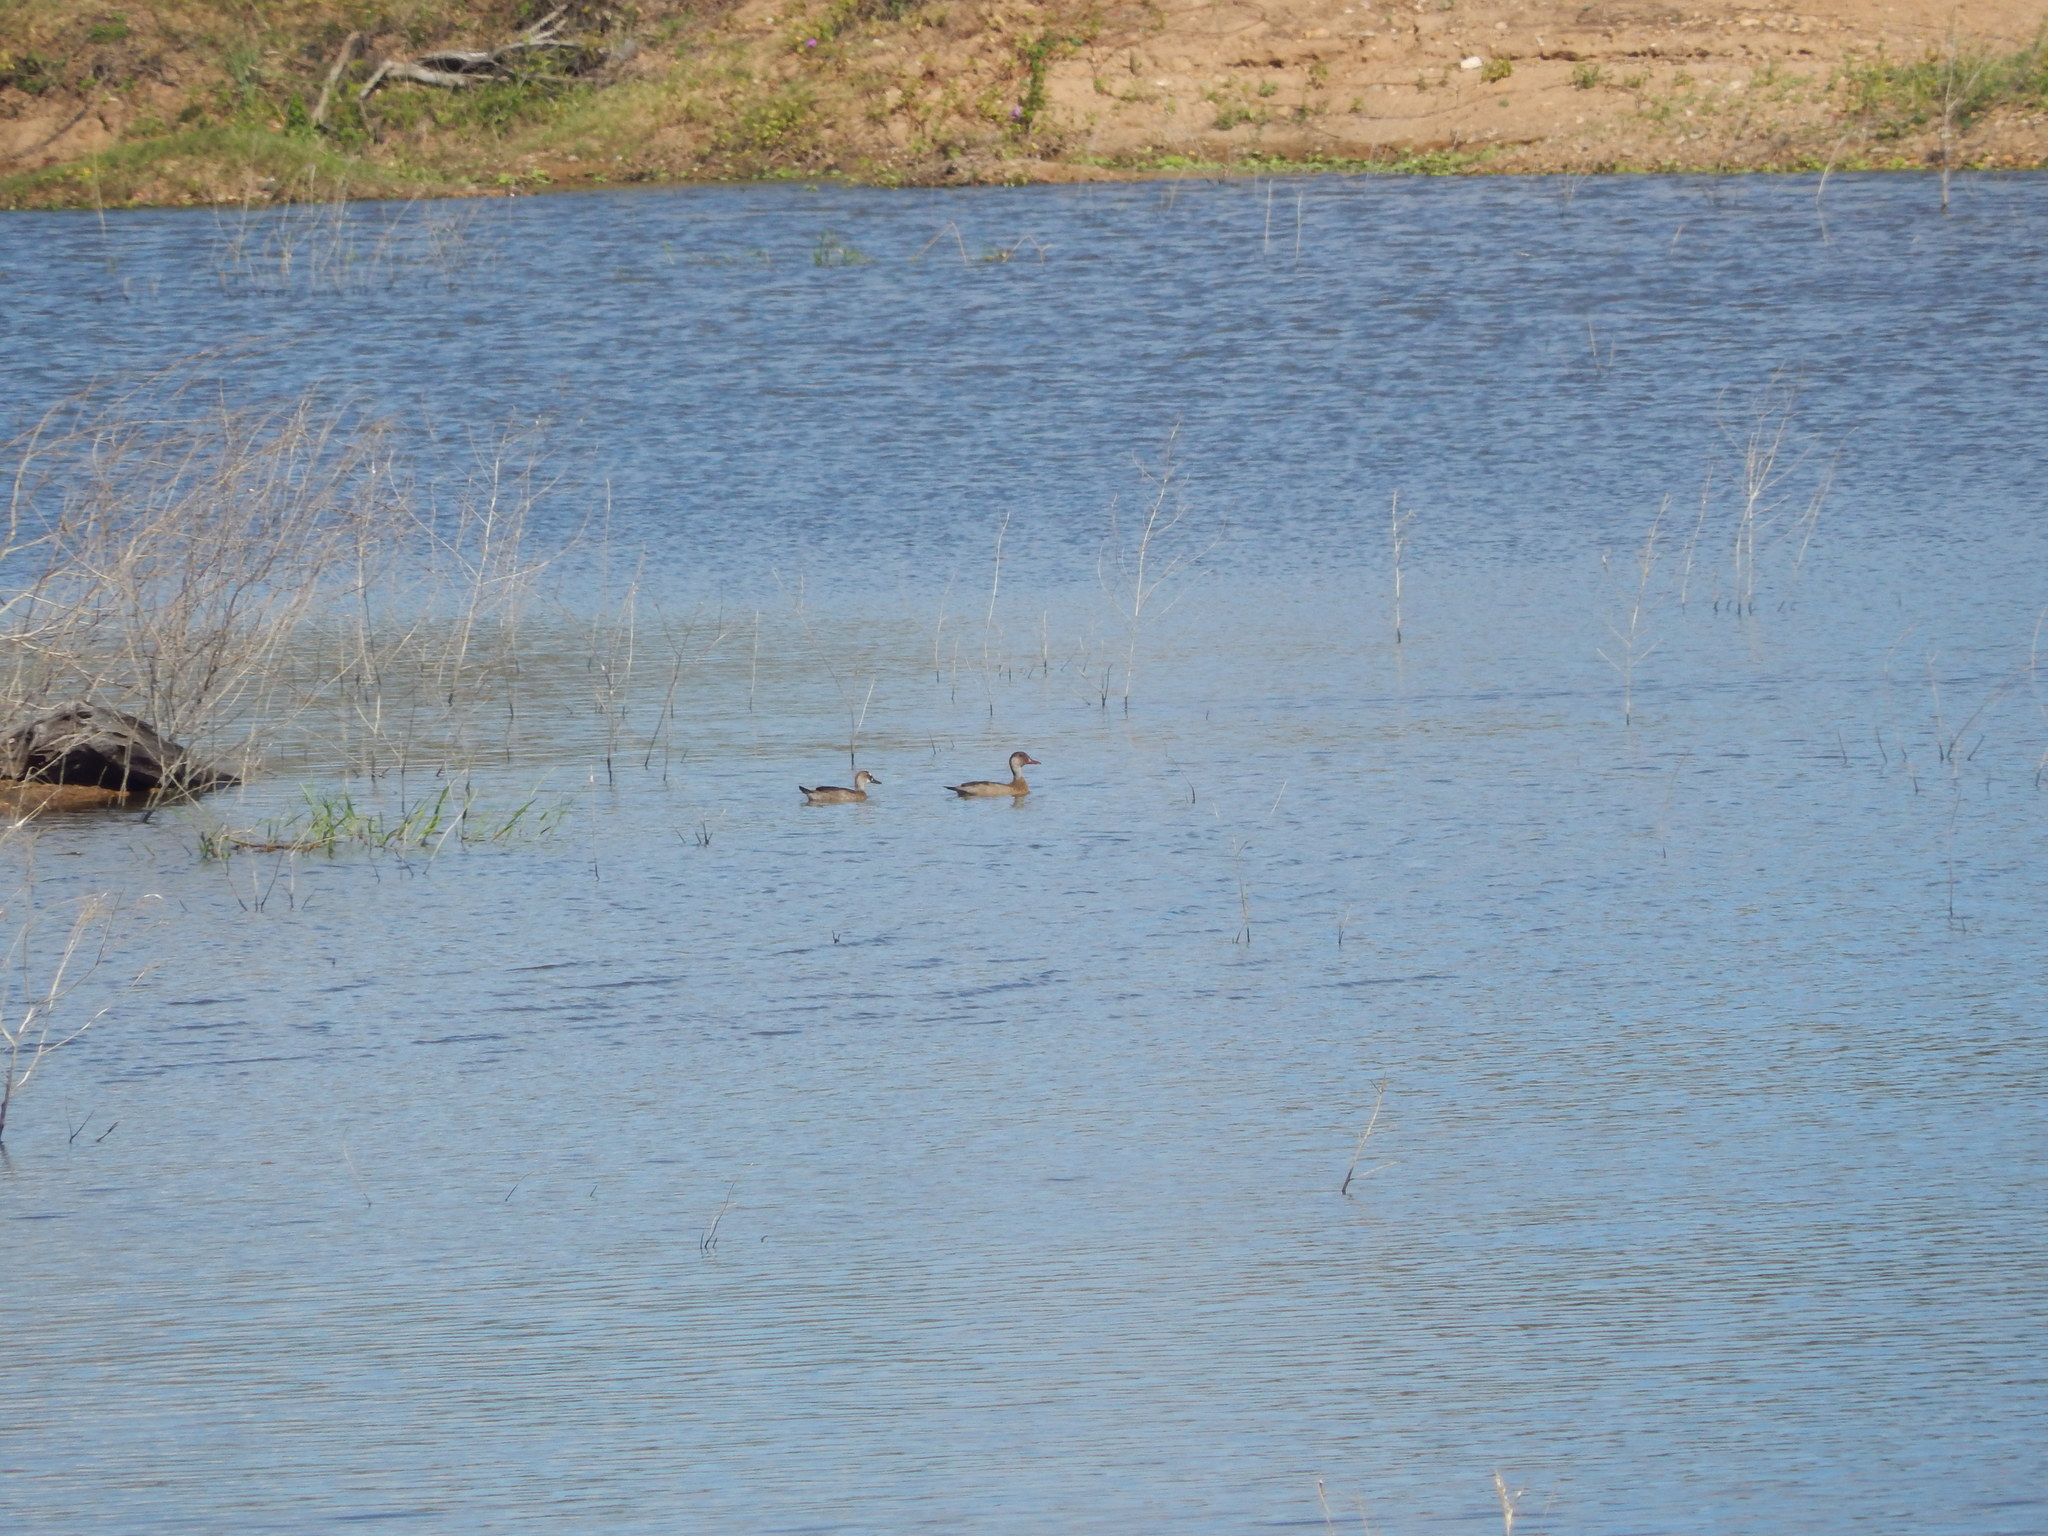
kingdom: Animalia
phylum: Chordata
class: Aves
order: Anseriformes
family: Anatidae
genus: Amazonetta
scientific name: Amazonetta brasiliensis
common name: Brazilian teal
